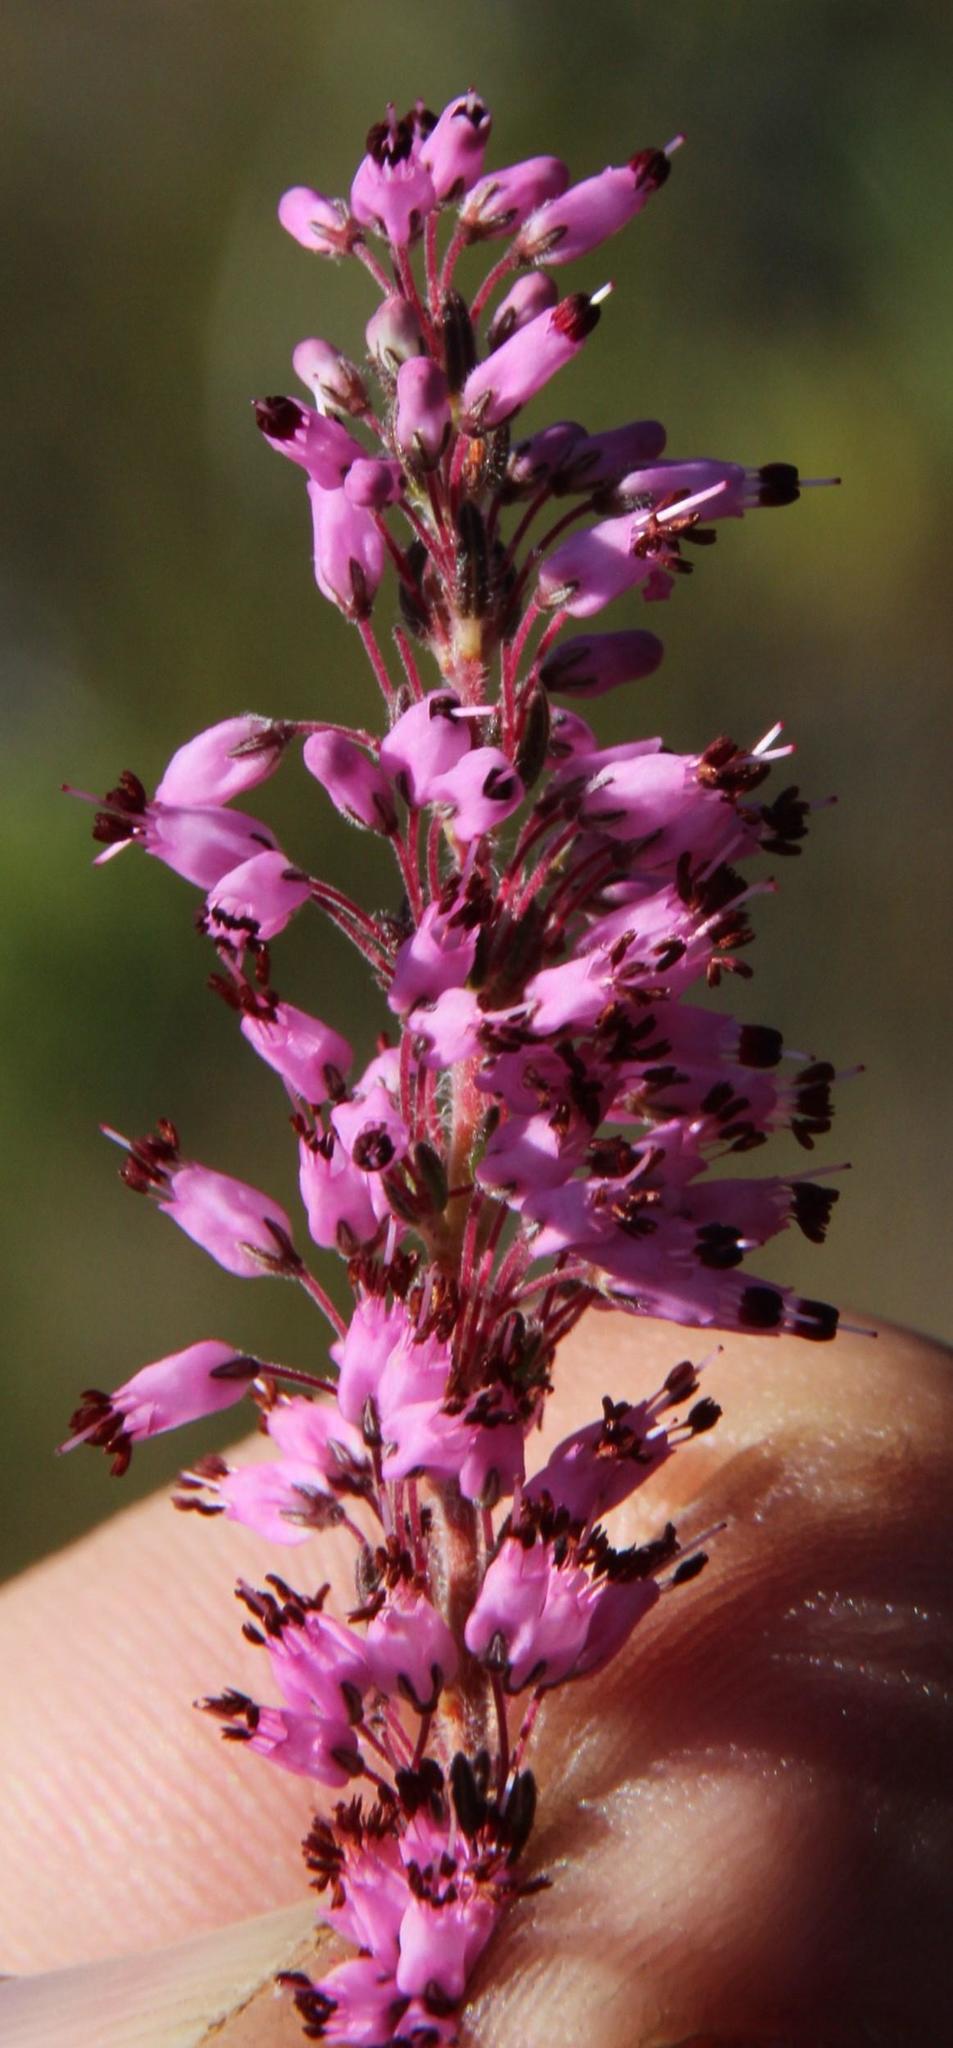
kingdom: Plantae
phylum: Tracheophyta
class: Magnoliopsida
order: Ericales
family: Ericaceae
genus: Erica
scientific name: Erica nudiflora
